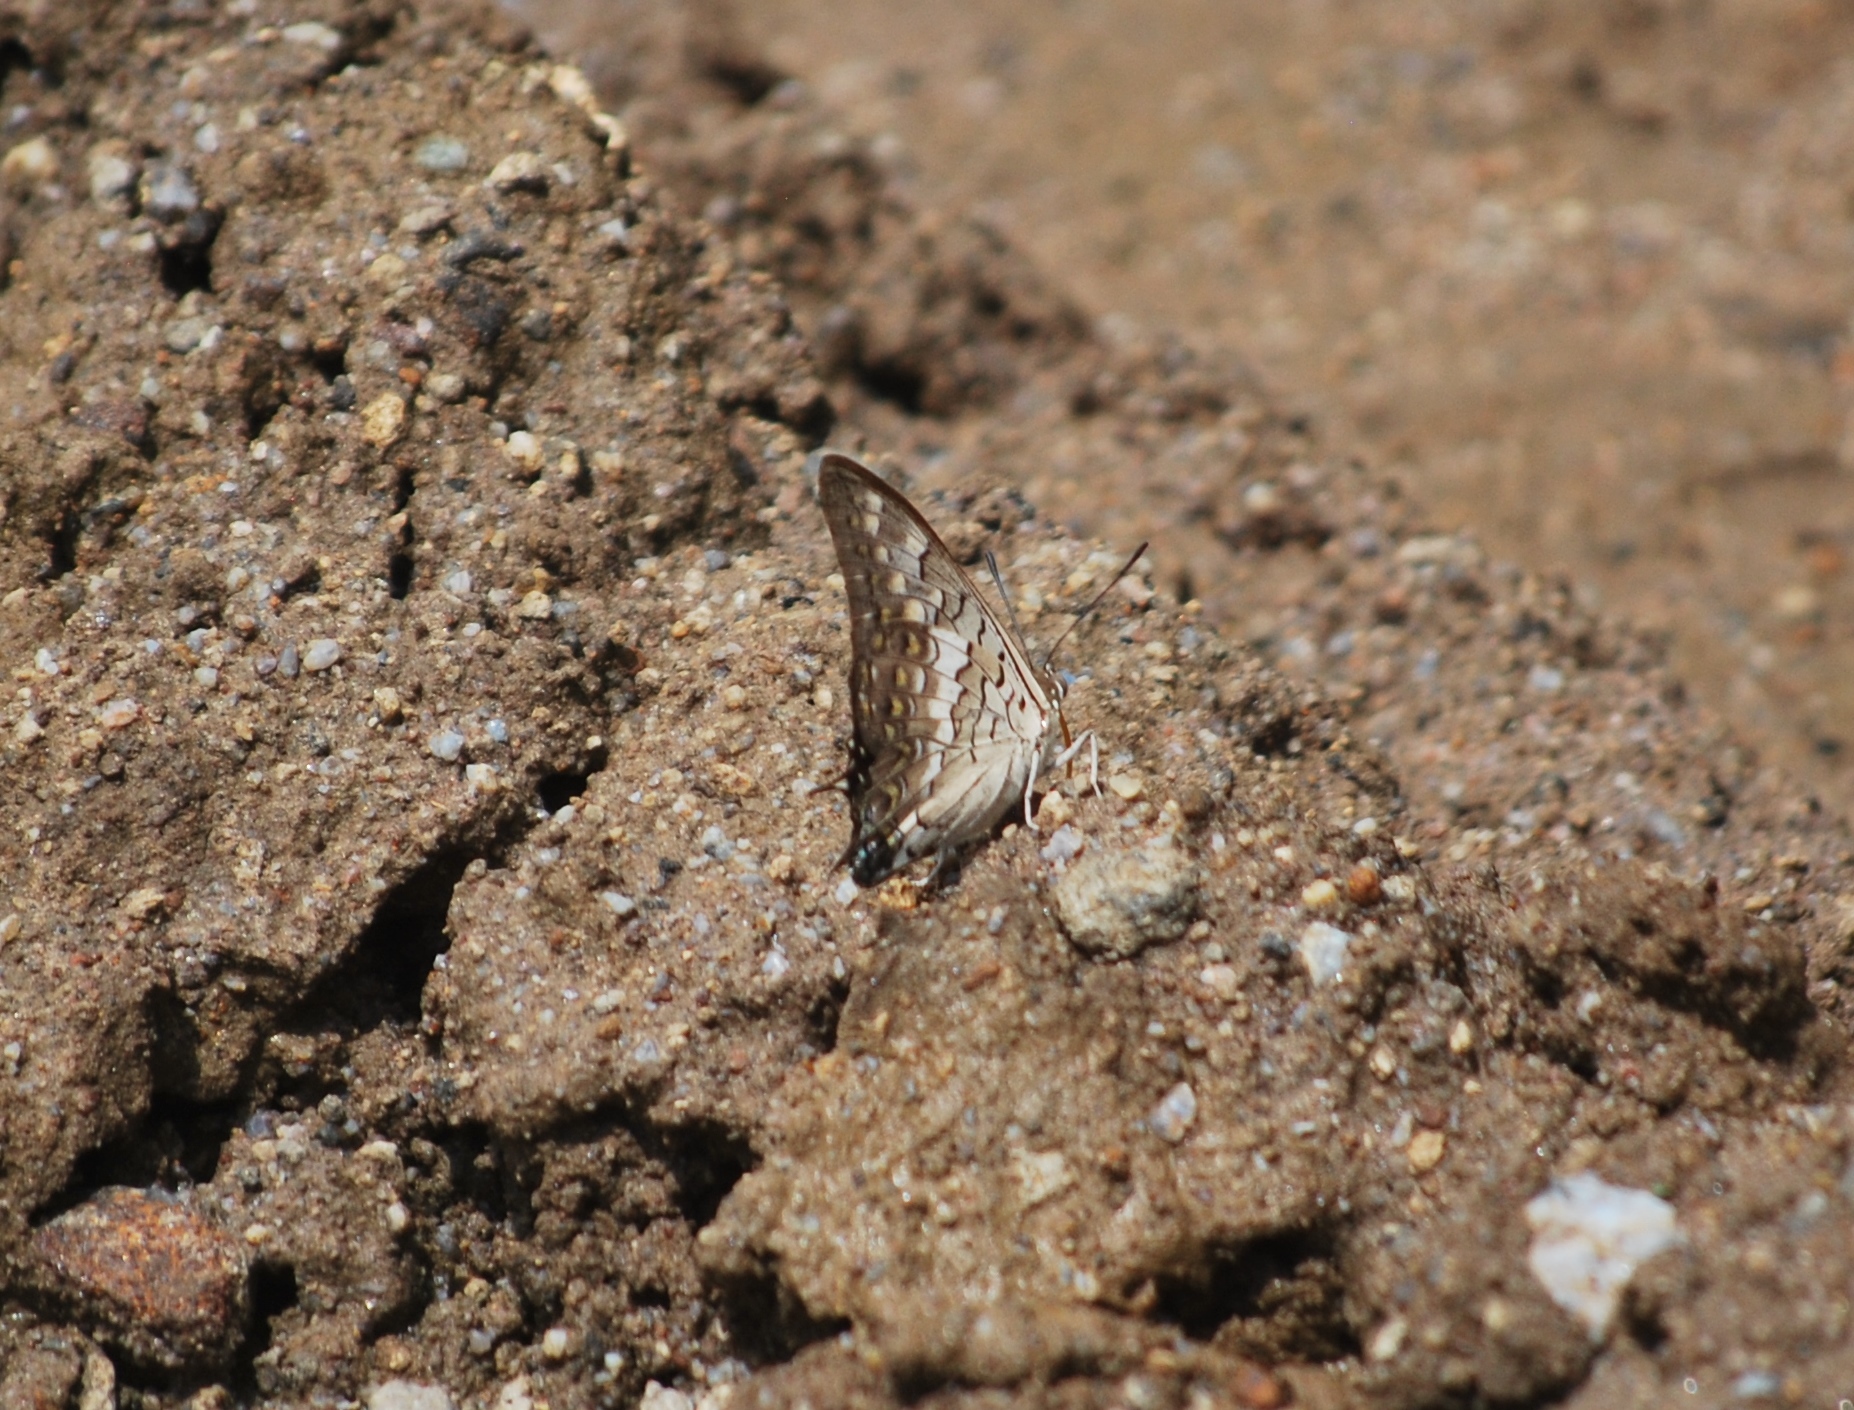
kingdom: Animalia
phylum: Arthropoda
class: Insecta
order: Lepidoptera
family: Nymphalidae
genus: Charaxes
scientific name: Charaxes solon
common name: Black rajah
